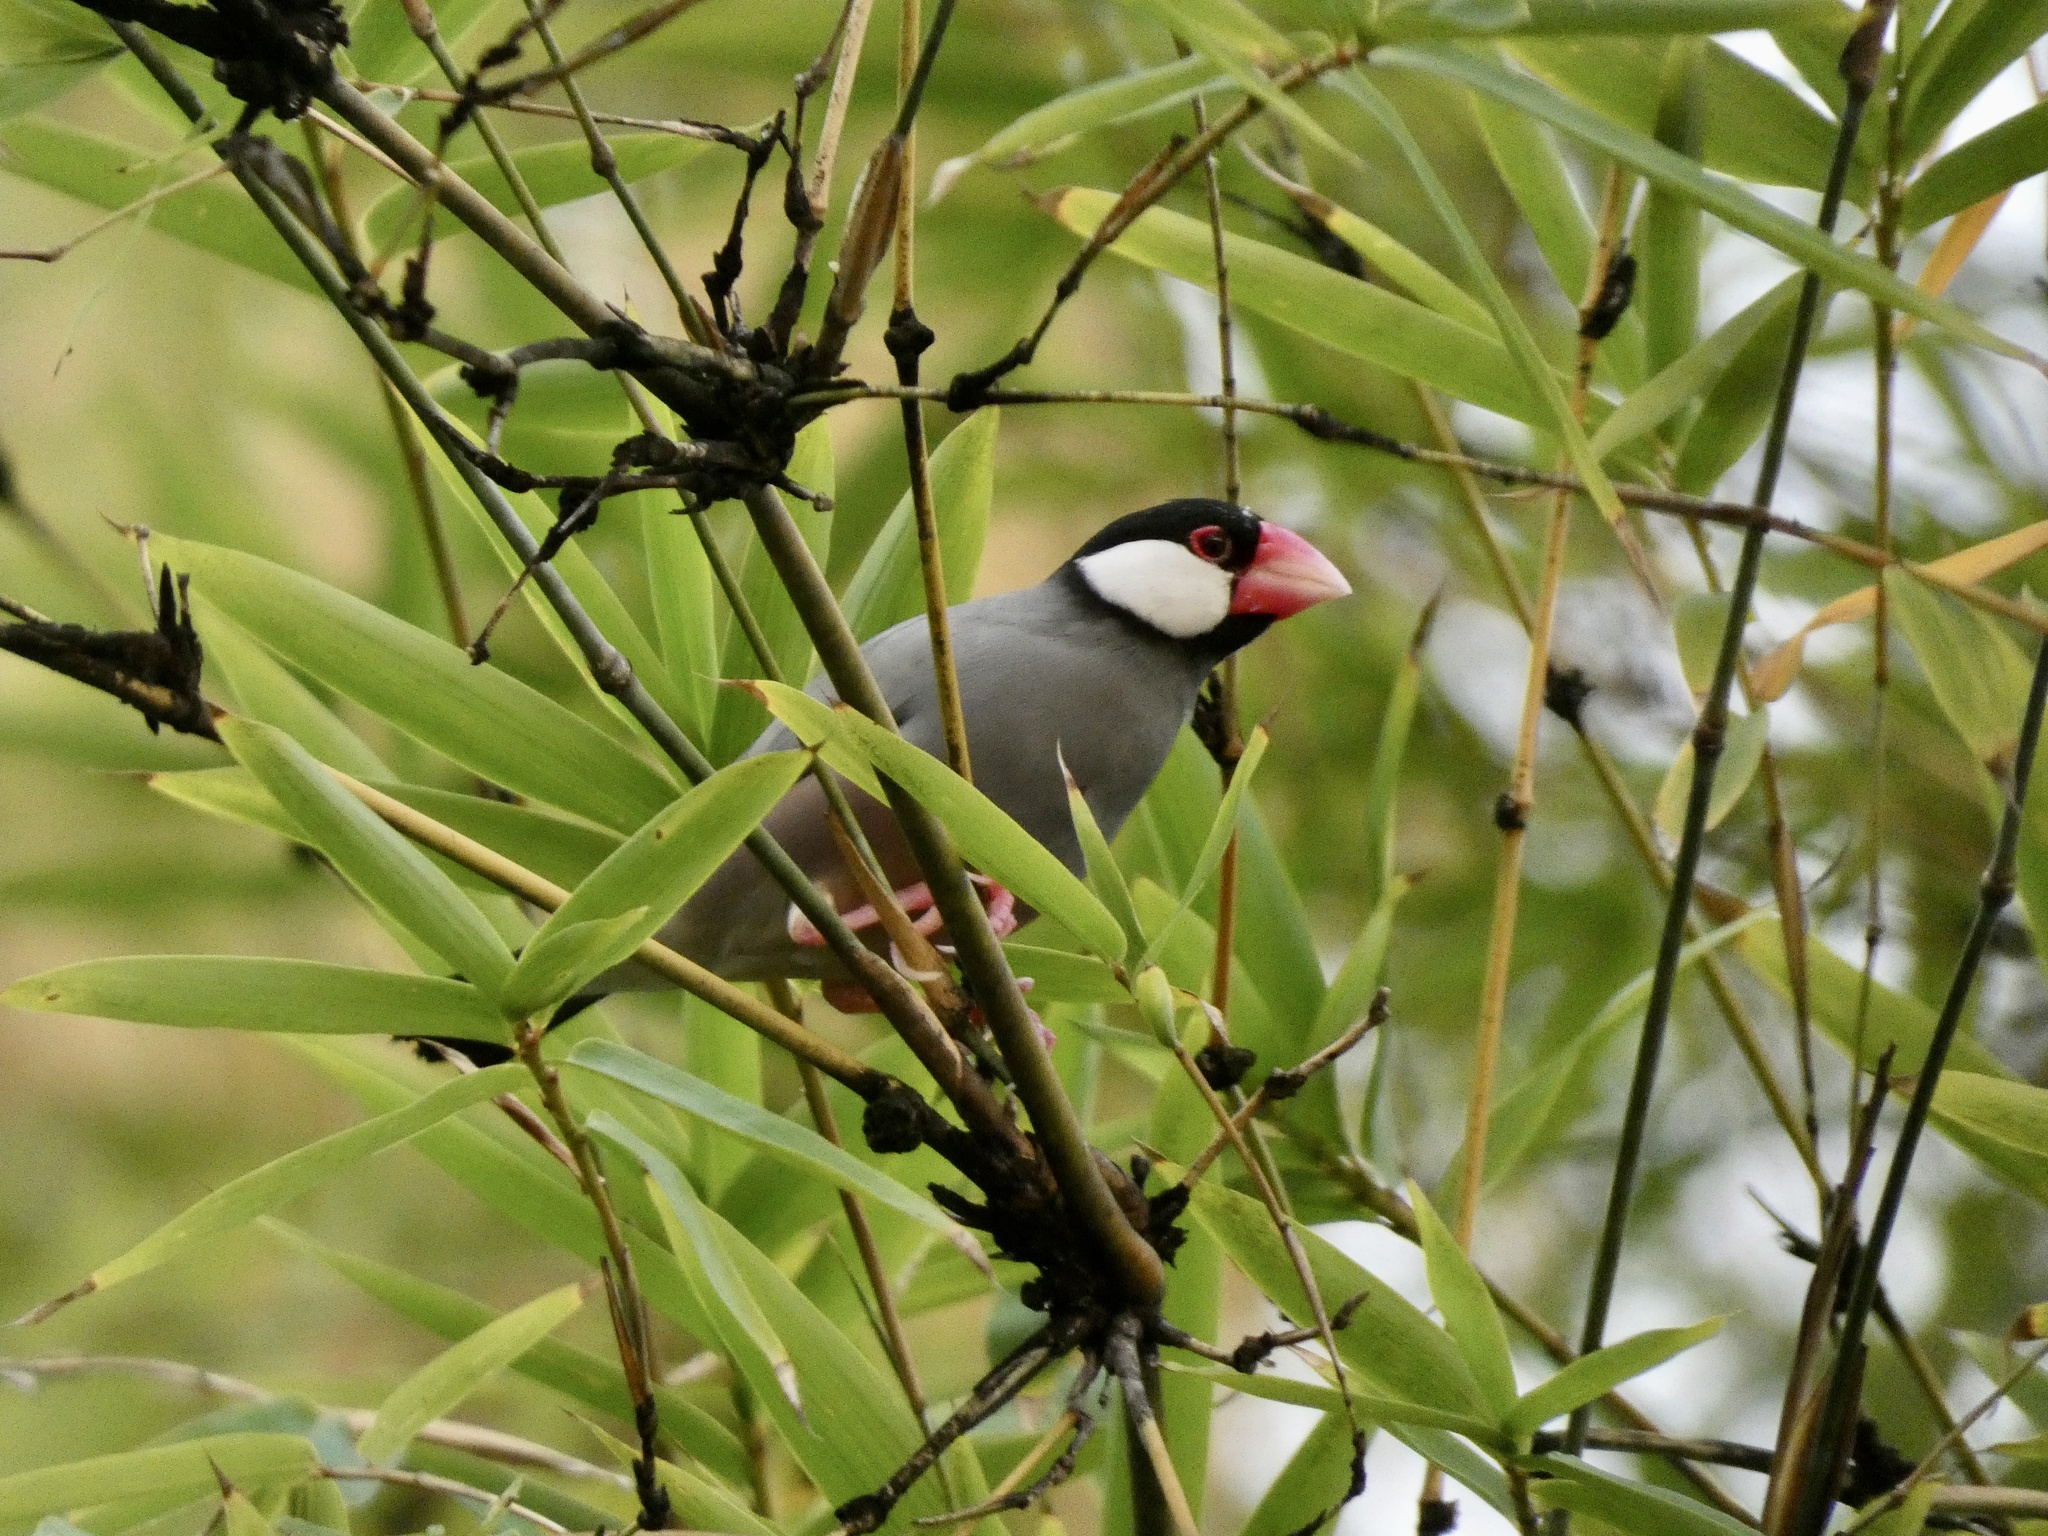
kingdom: Animalia
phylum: Chordata
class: Aves
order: Passeriformes
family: Estrildidae
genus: Lonchura
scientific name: Lonchura oryzivora
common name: Java sparrow
